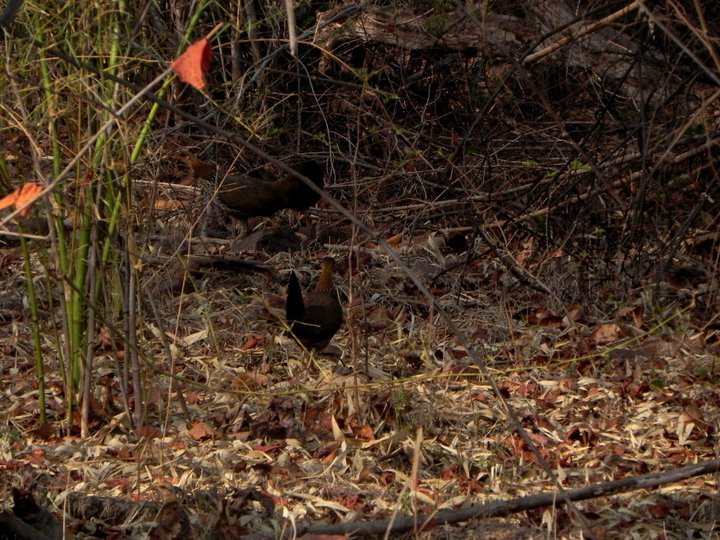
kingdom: Animalia
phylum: Chordata
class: Aves
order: Galliformes
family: Phasianidae
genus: Gallus
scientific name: Gallus sonneratii
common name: Grey junglefowl
